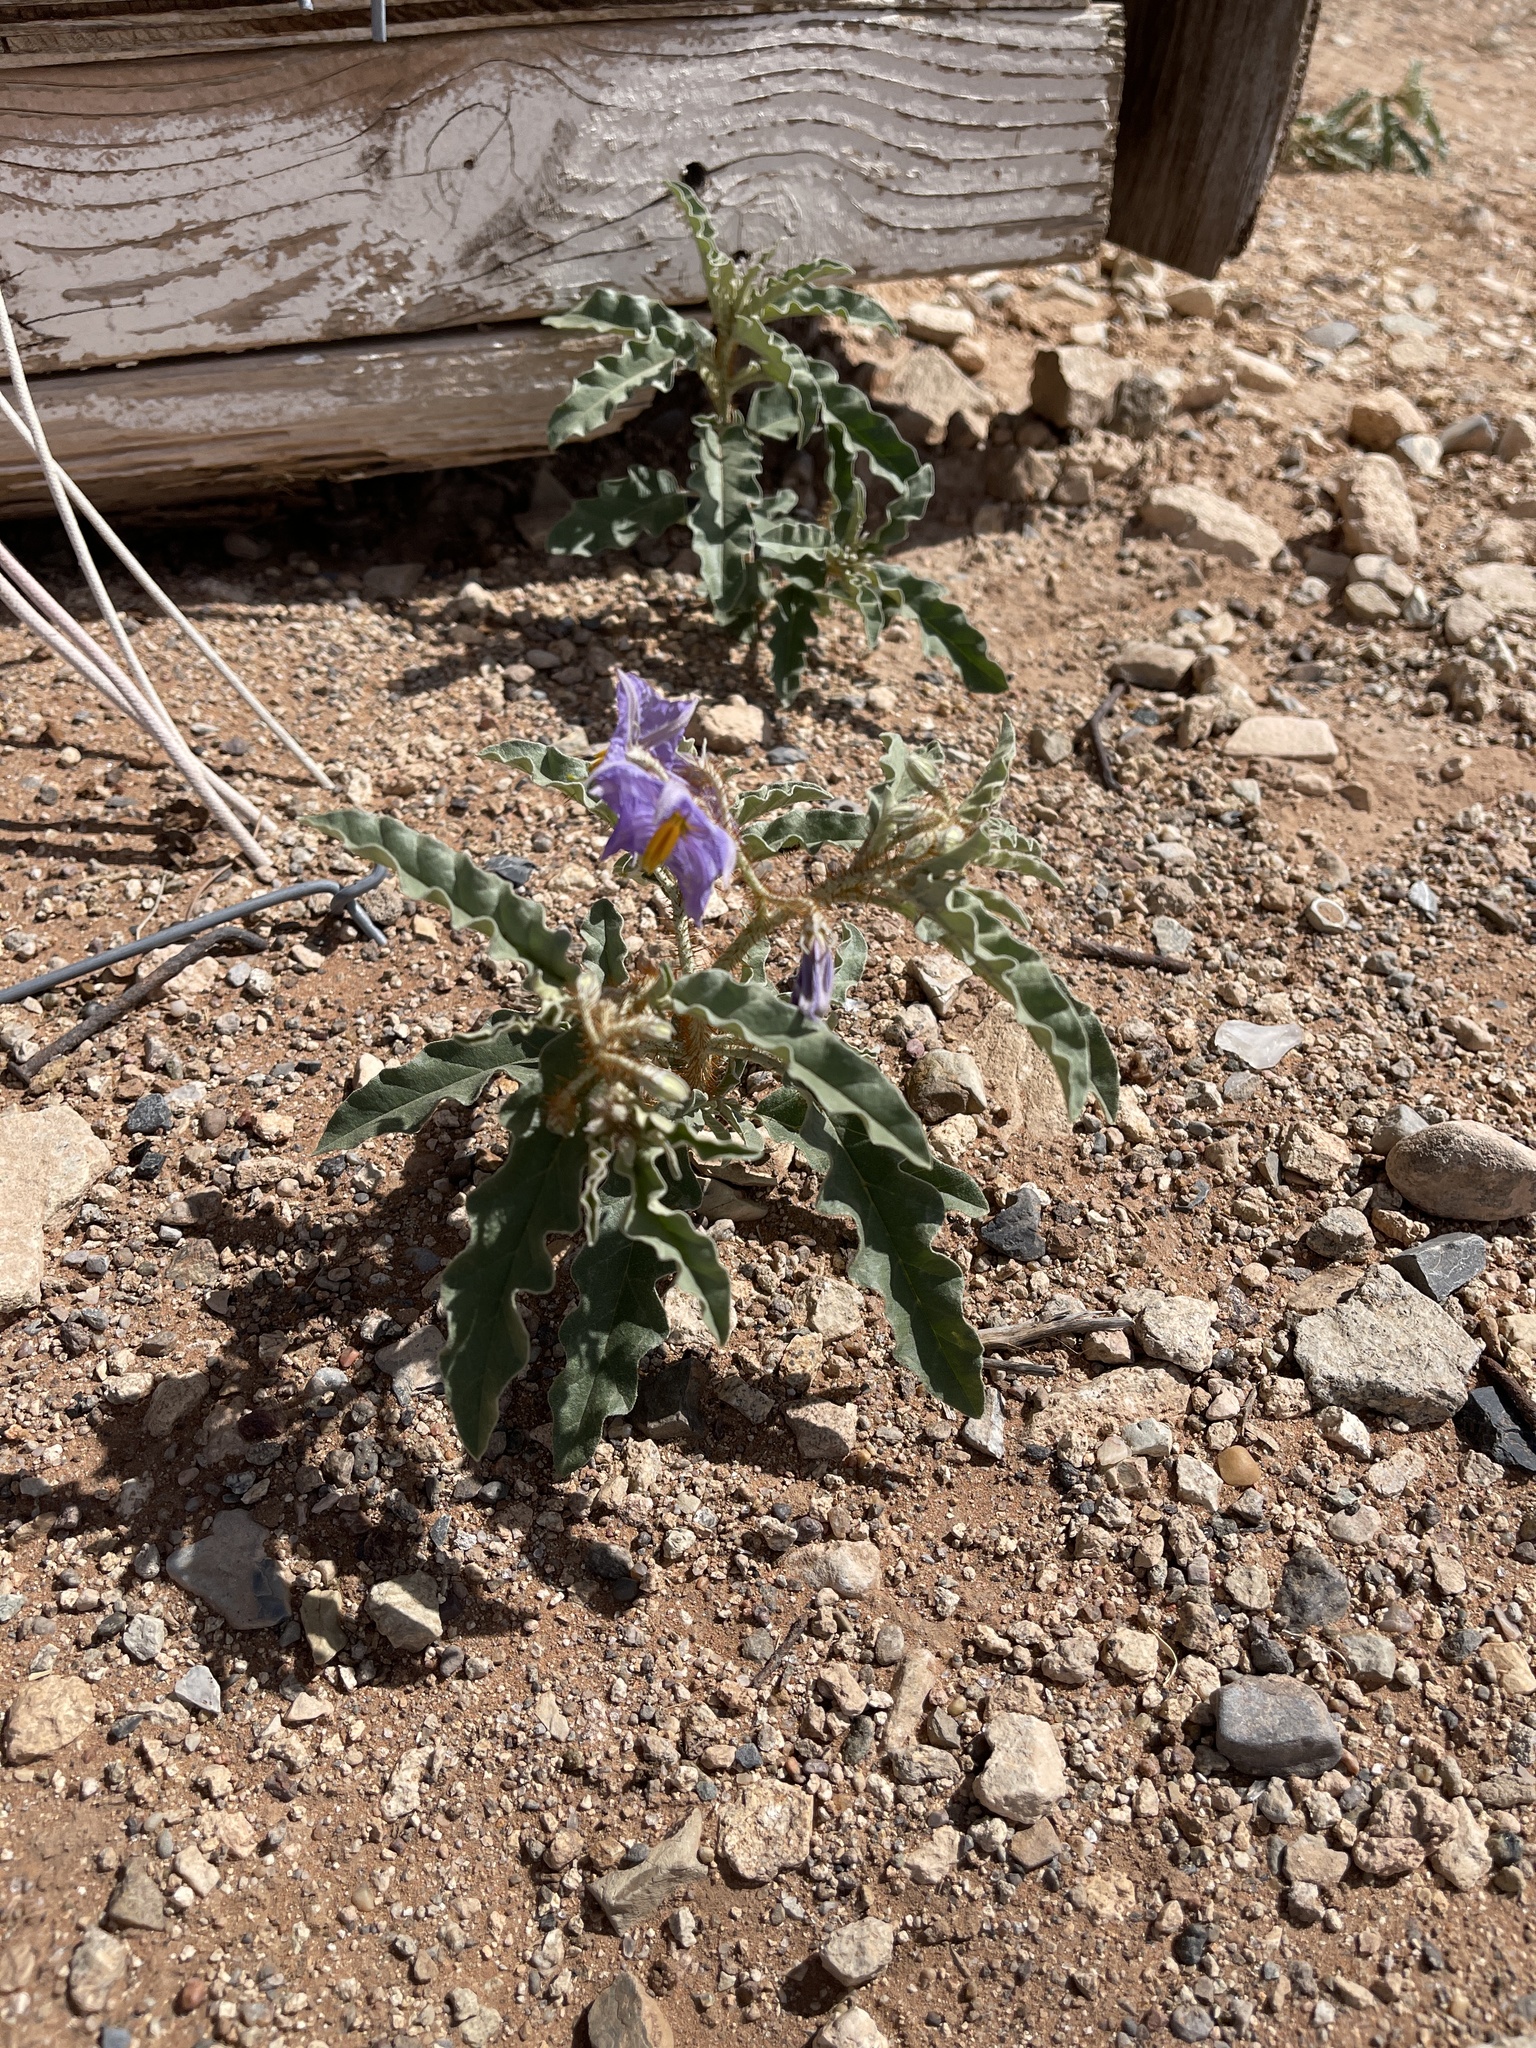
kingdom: Plantae
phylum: Tracheophyta
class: Magnoliopsida
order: Solanales
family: Solanaceae
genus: Solanum
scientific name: Solanum elaeagnifolium
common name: Silverleaf nightshade
